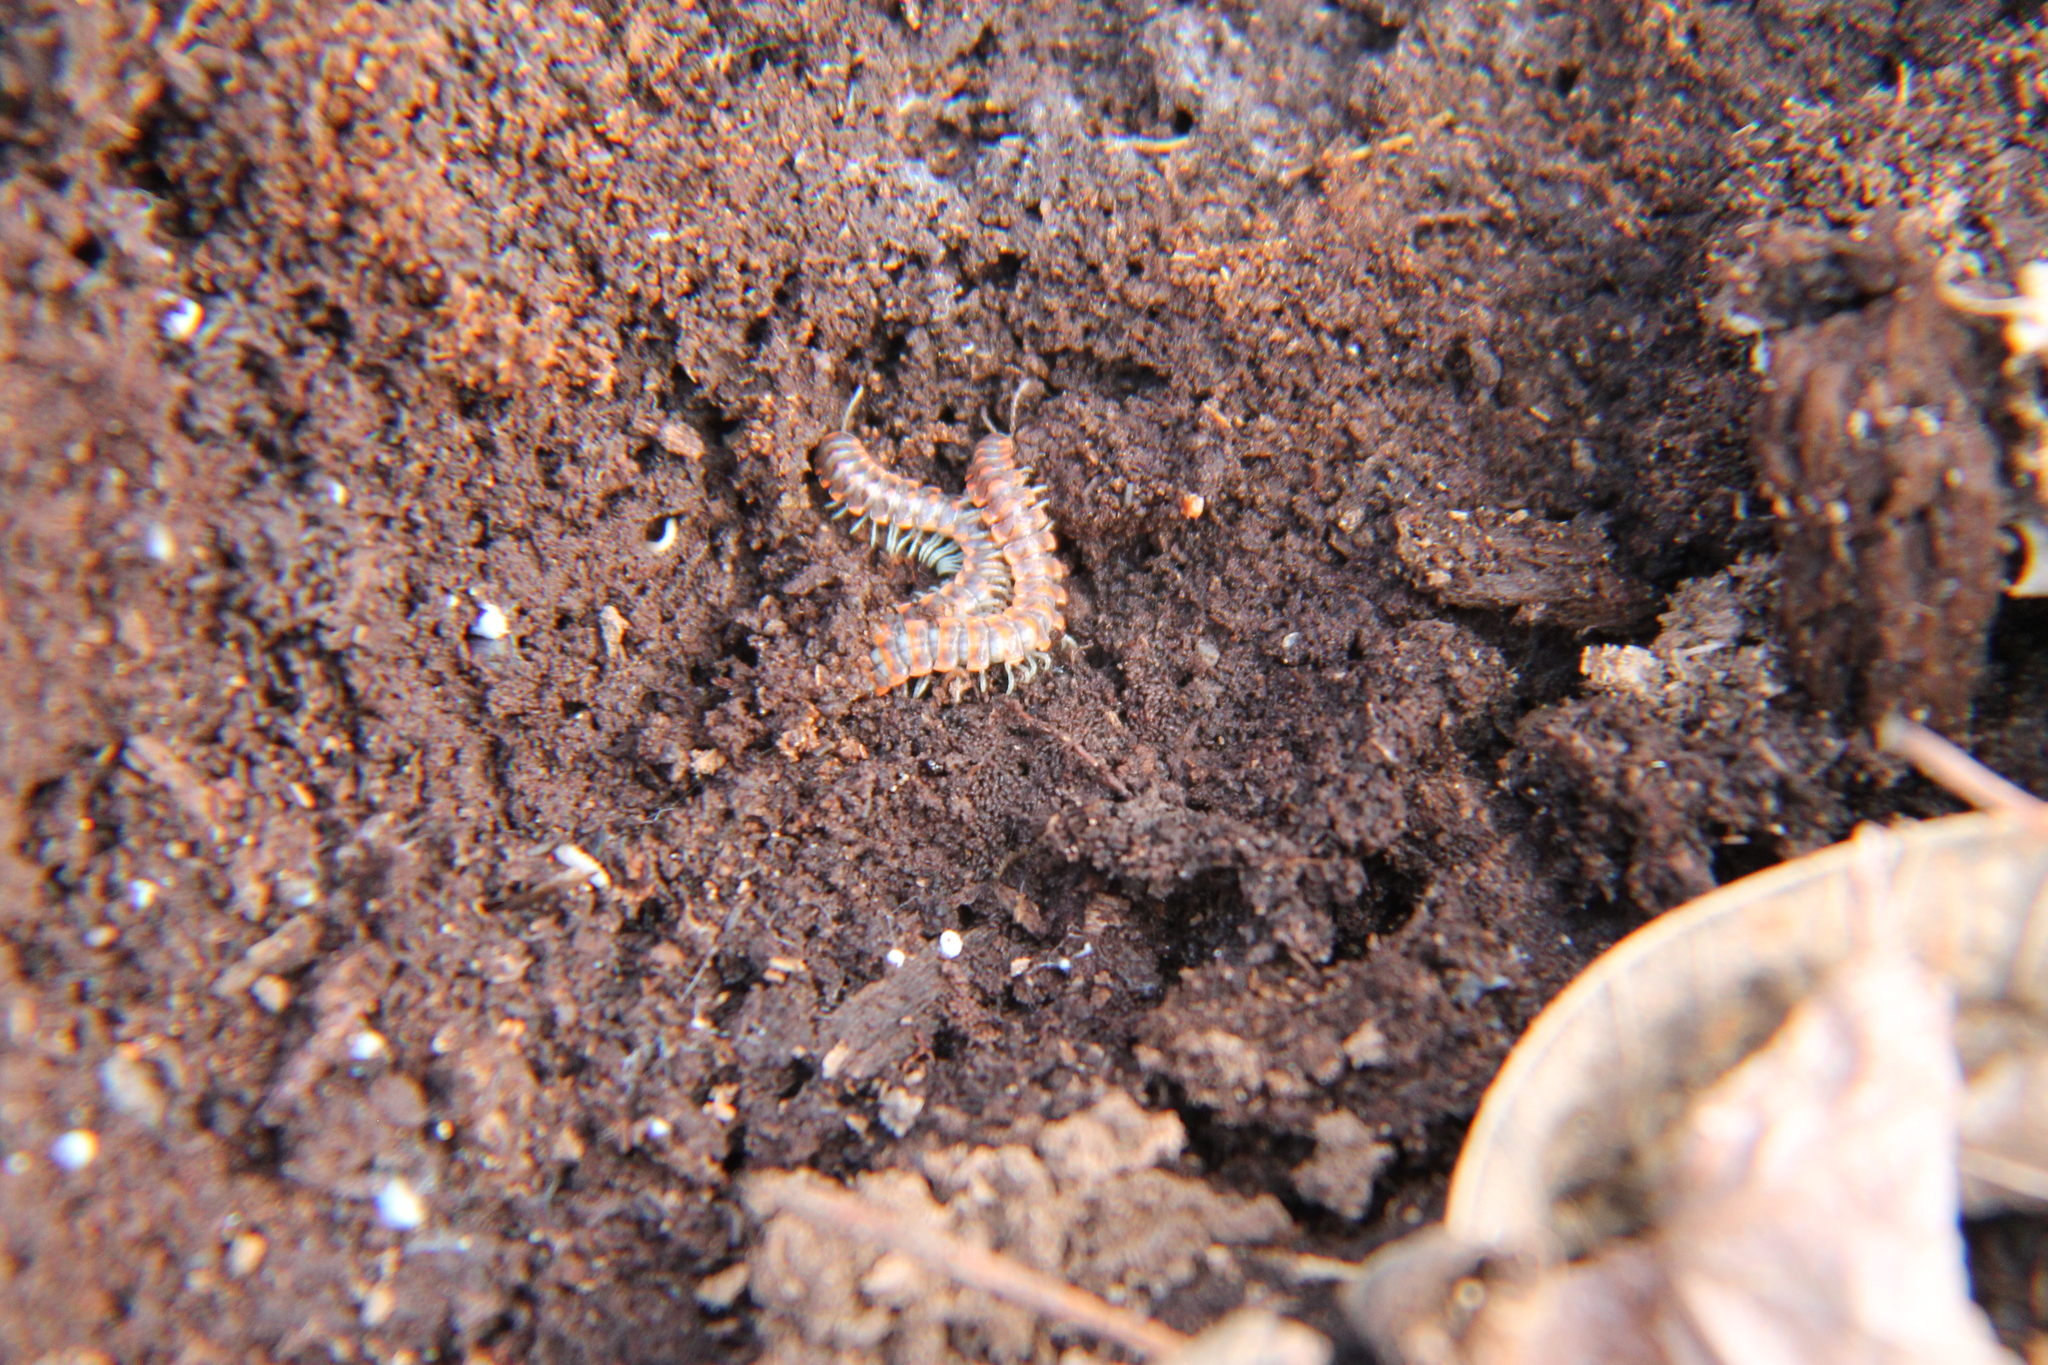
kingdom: Animalia
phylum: Arthropoda
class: Diplopoda
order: Polydesmida
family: Xystodesmidae
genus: Euryurus
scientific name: Euryurus leachii
